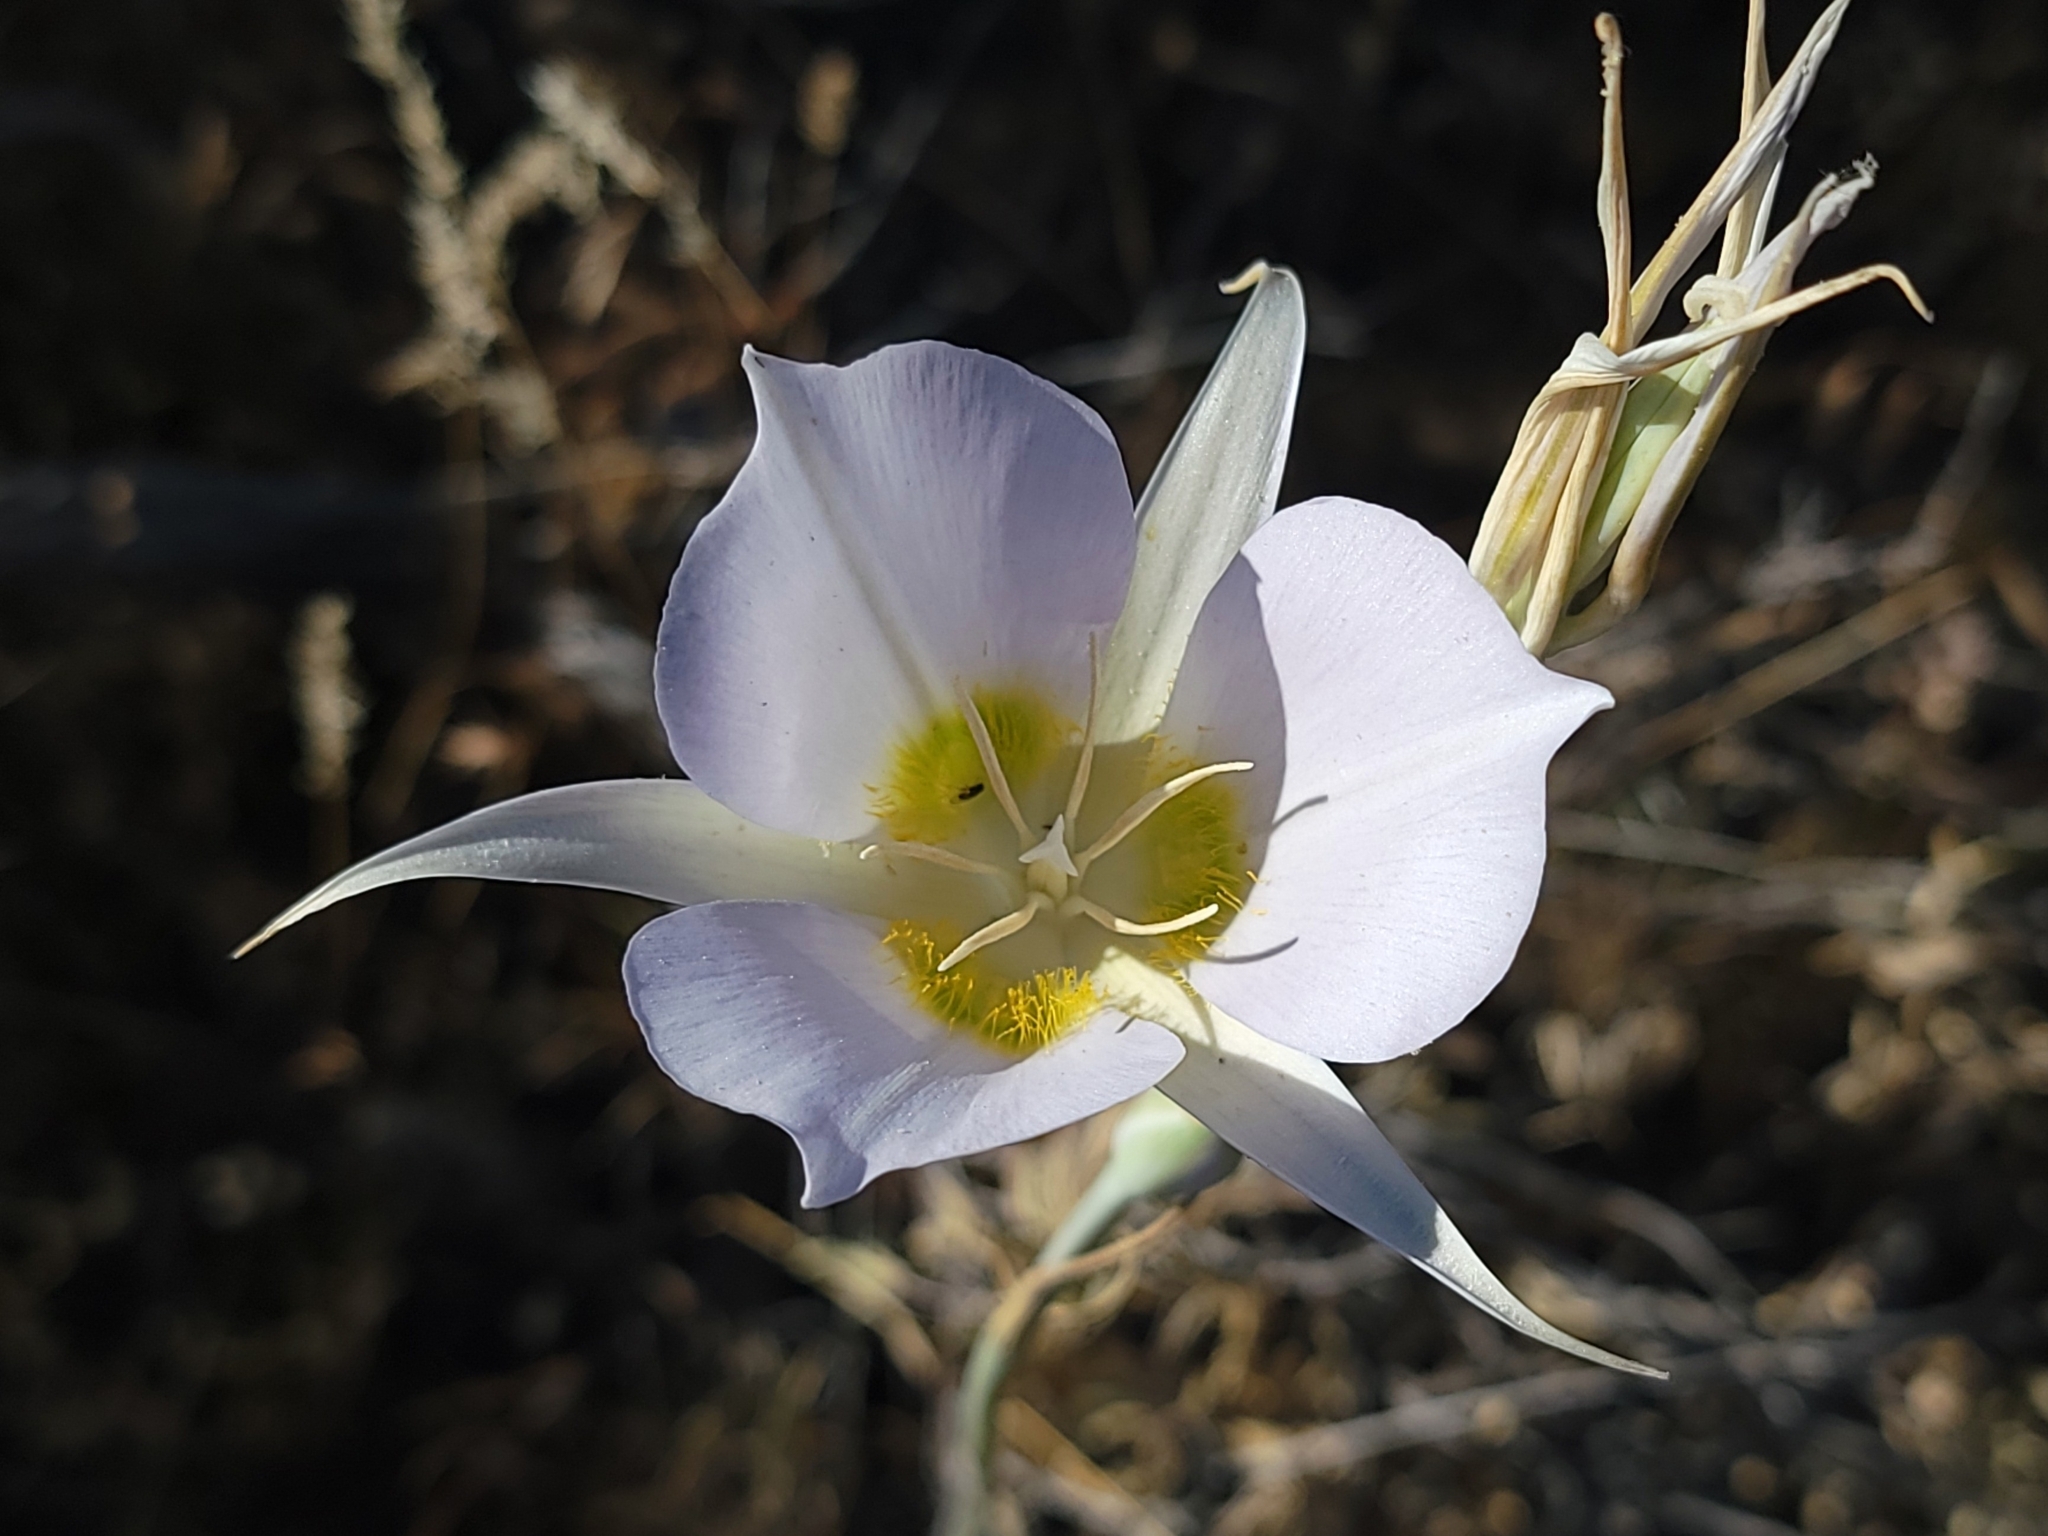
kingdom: Plantae
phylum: Tracheophyta
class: Liliopsida
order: Liliales
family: Liliaceae
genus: Calochortus
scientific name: Calochortus macrocarpus
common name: Green-band mariposa lily
